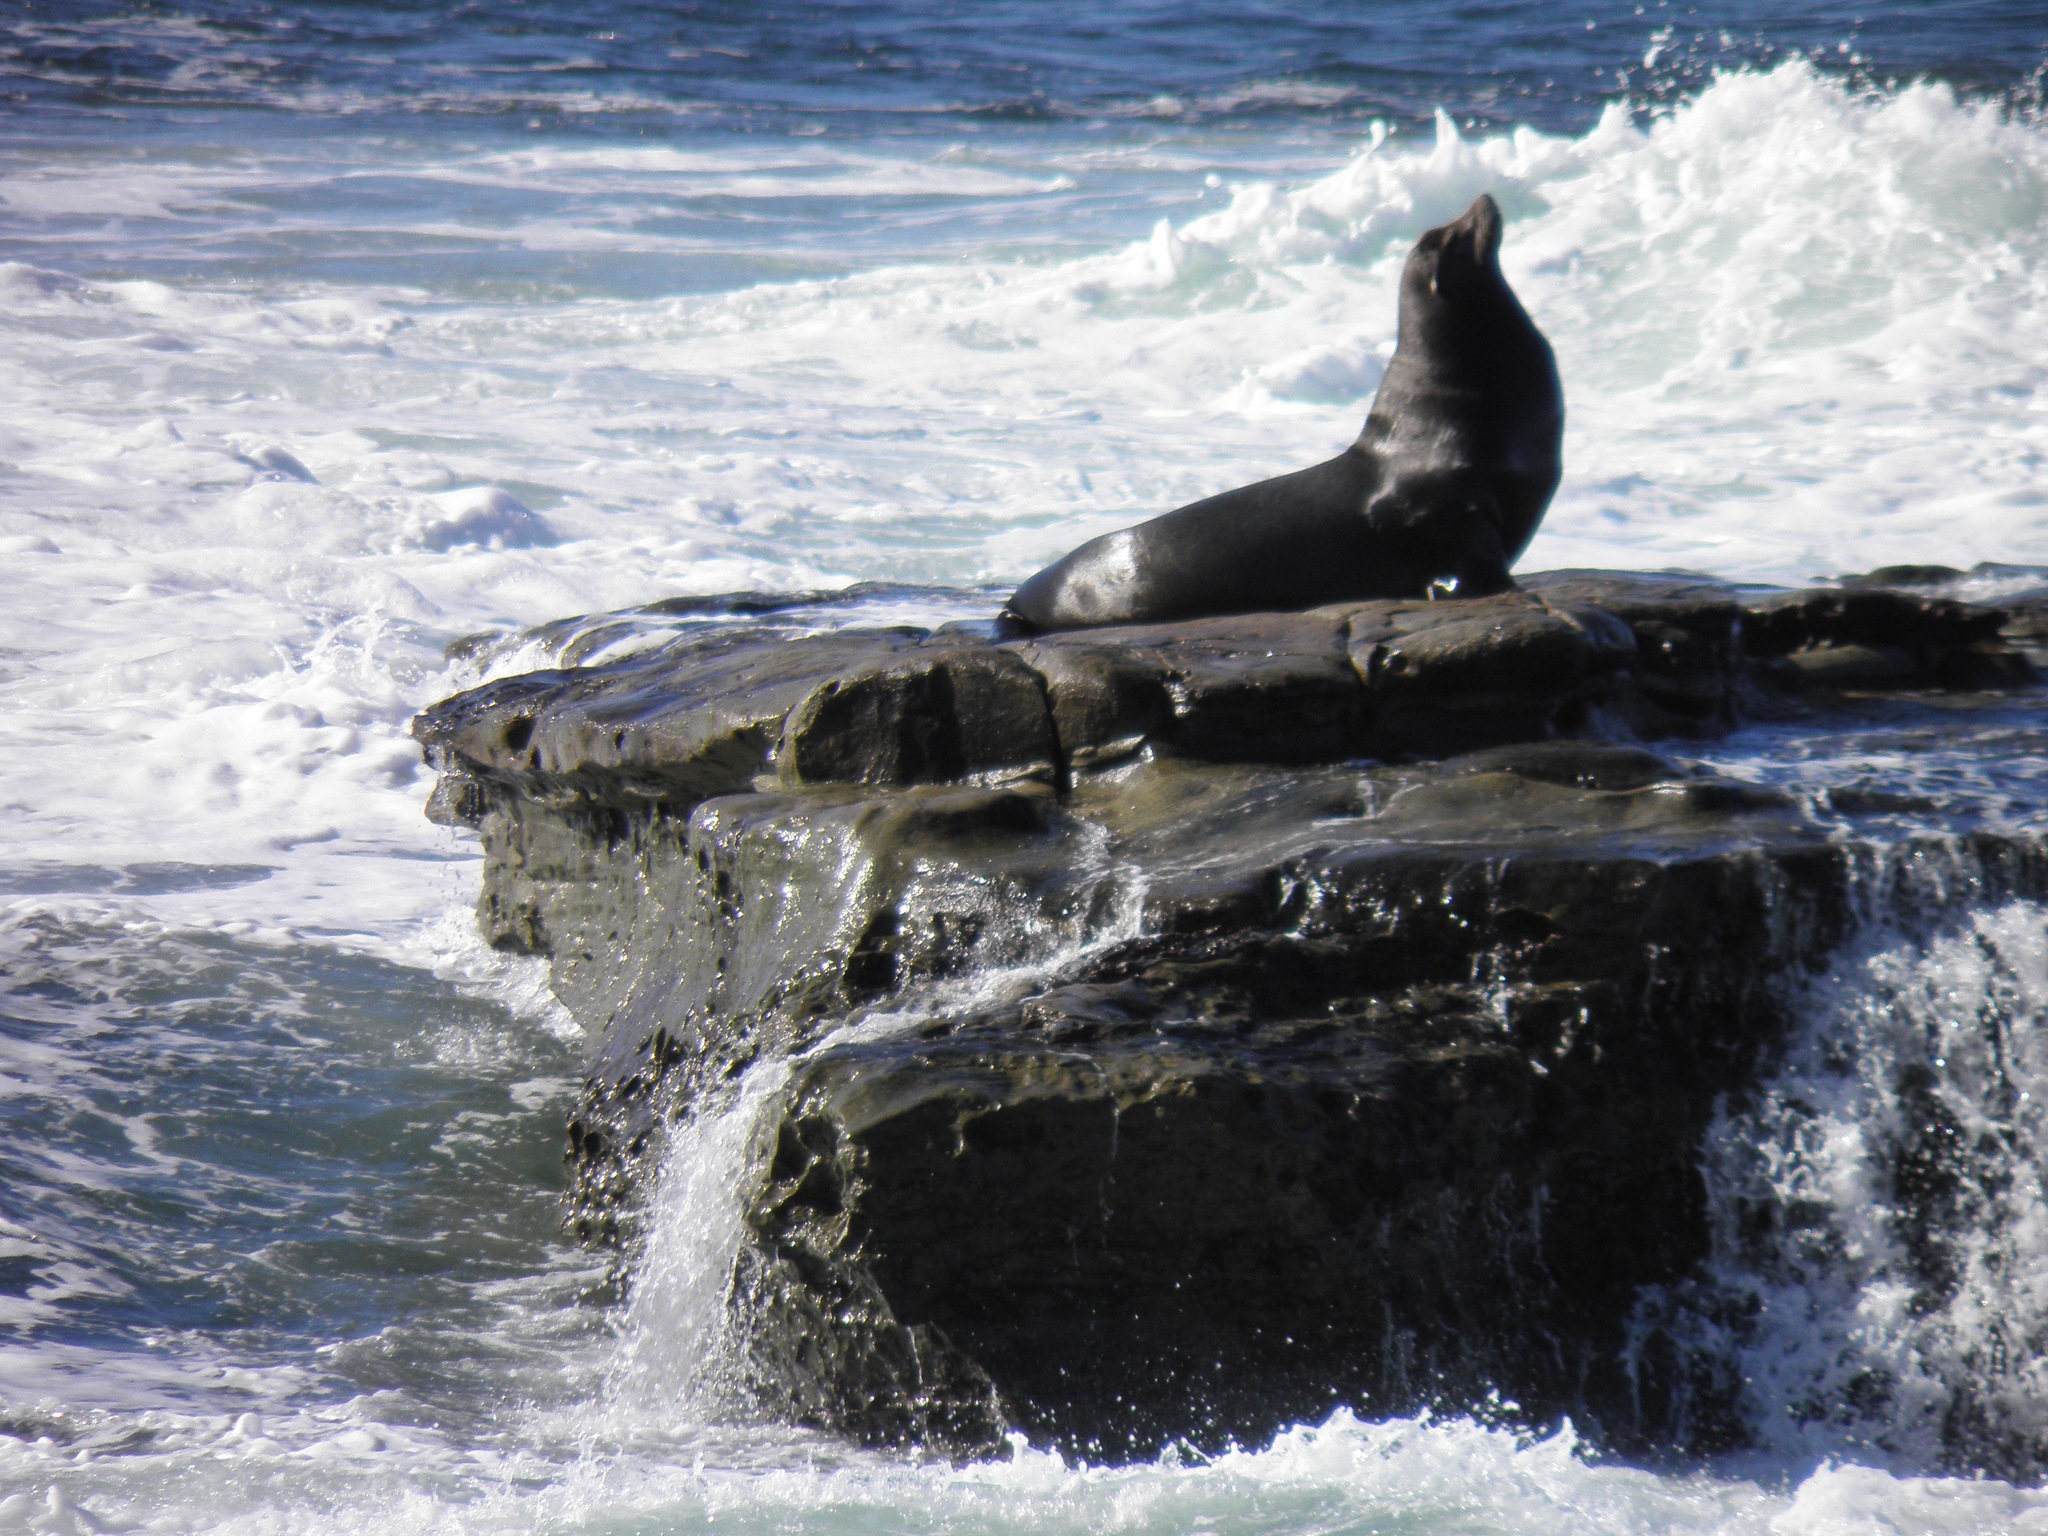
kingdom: Animalia
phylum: Chordata
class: Mammalia
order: Carnivora
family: Otariidae
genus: Zalophus
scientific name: Zalophus californianus
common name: California sea lion
